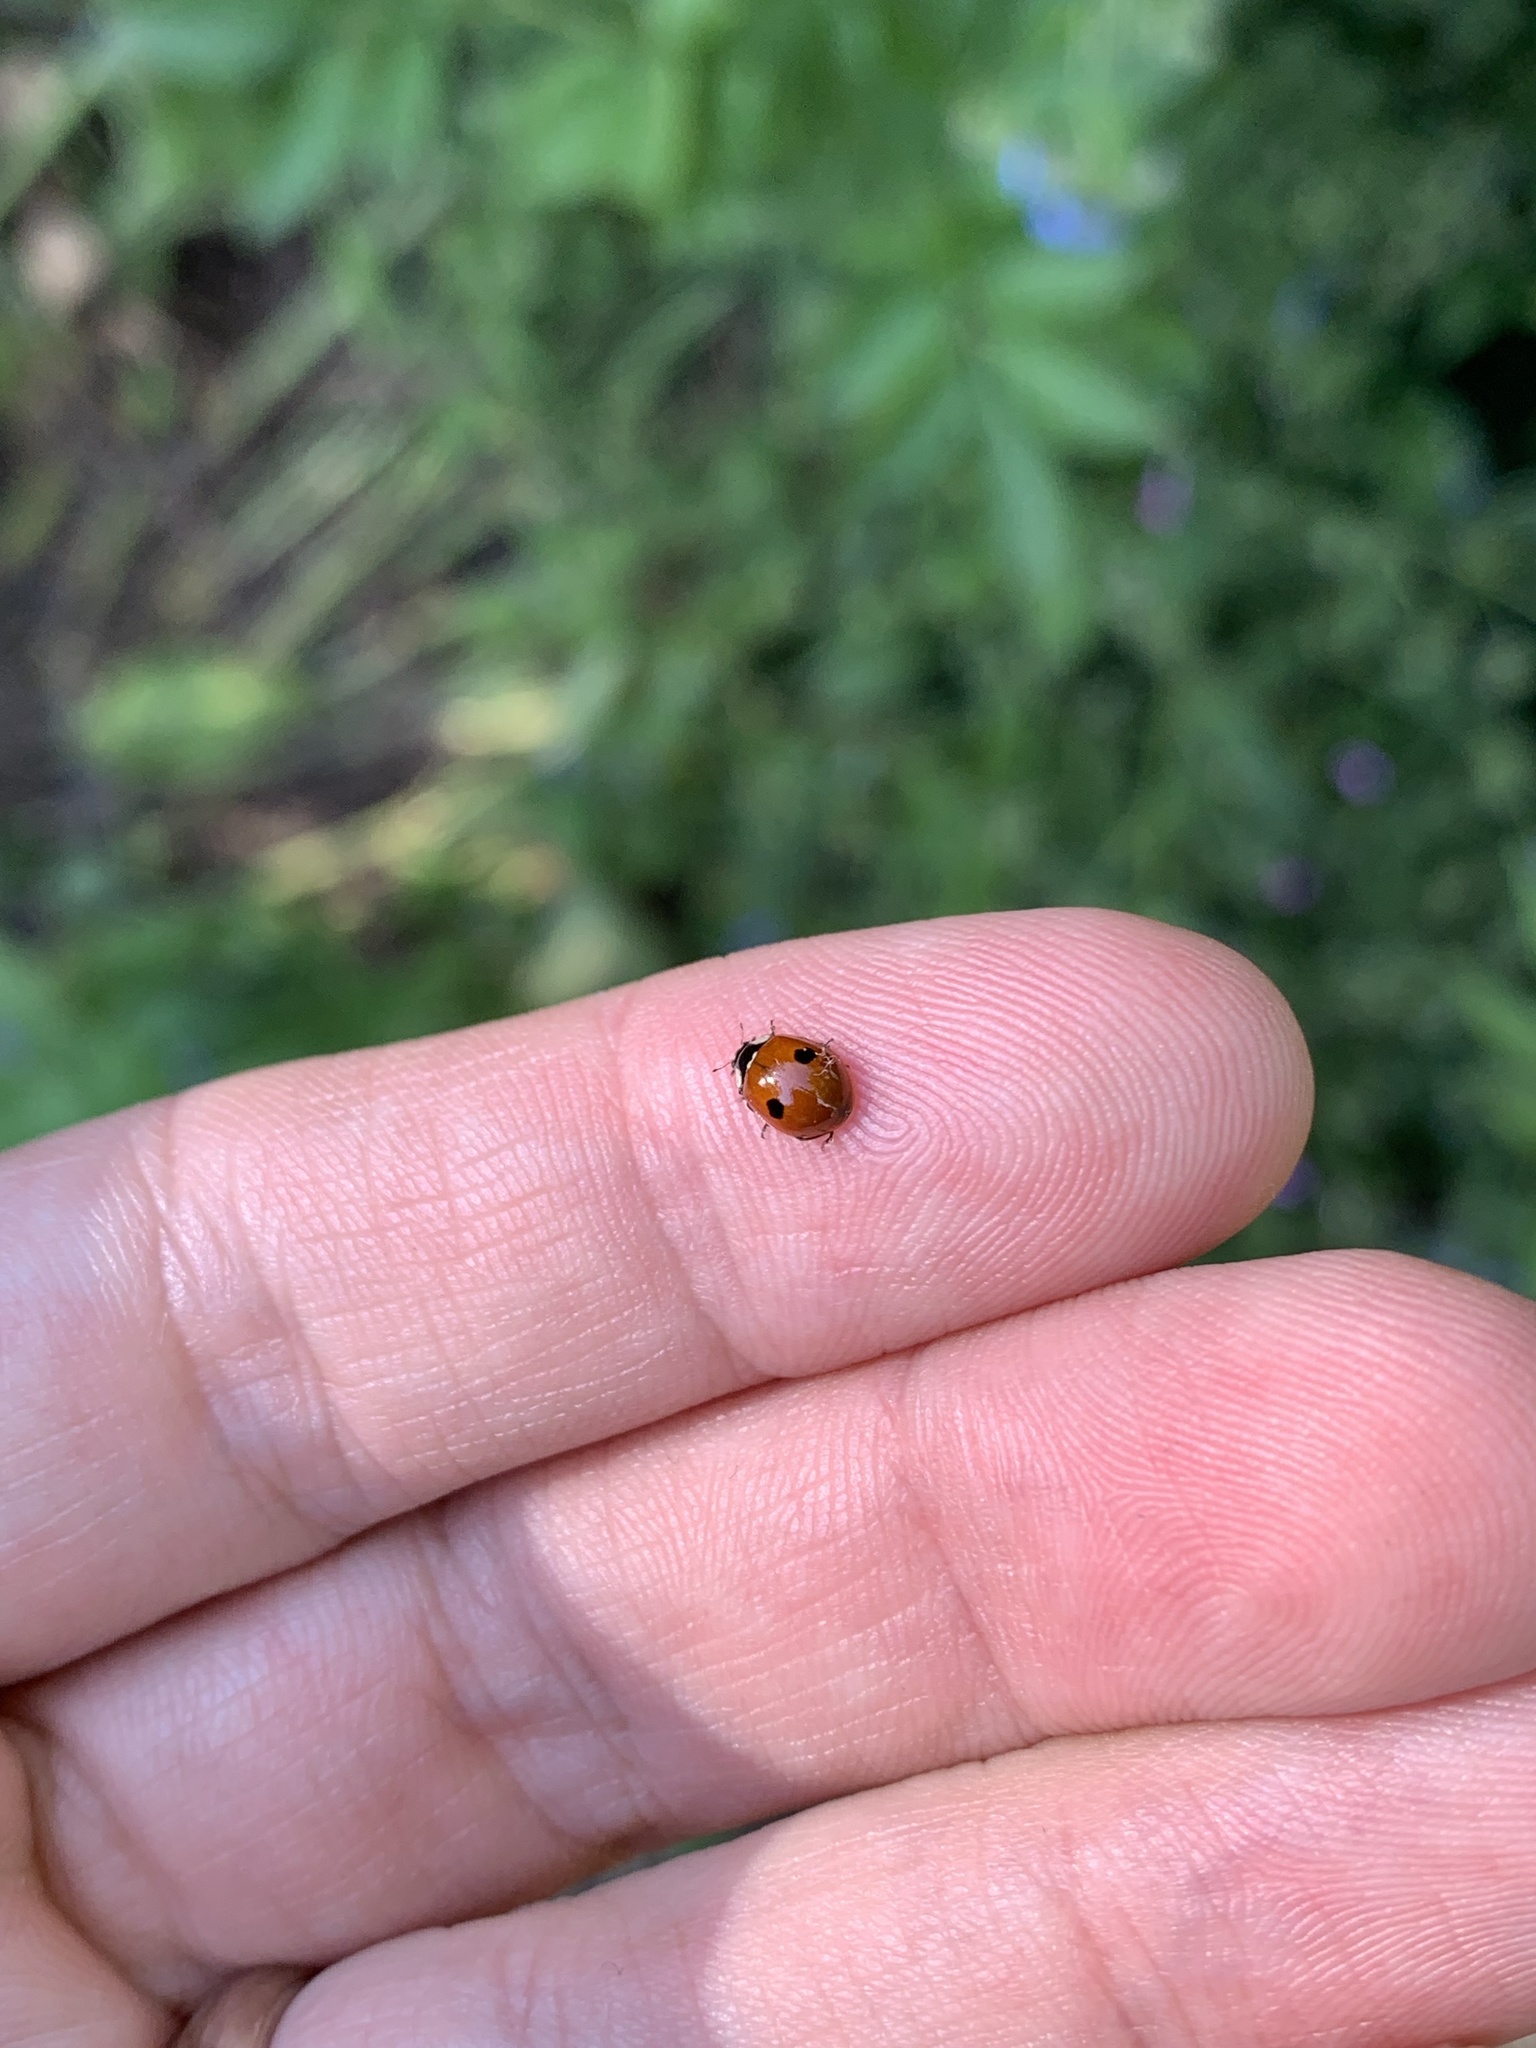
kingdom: Animalia
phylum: Arthropoda
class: Insecta
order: Coleoptera
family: Coccinellidae
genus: Adalia
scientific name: Adalia bipunctata
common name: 2-spot ladybird
